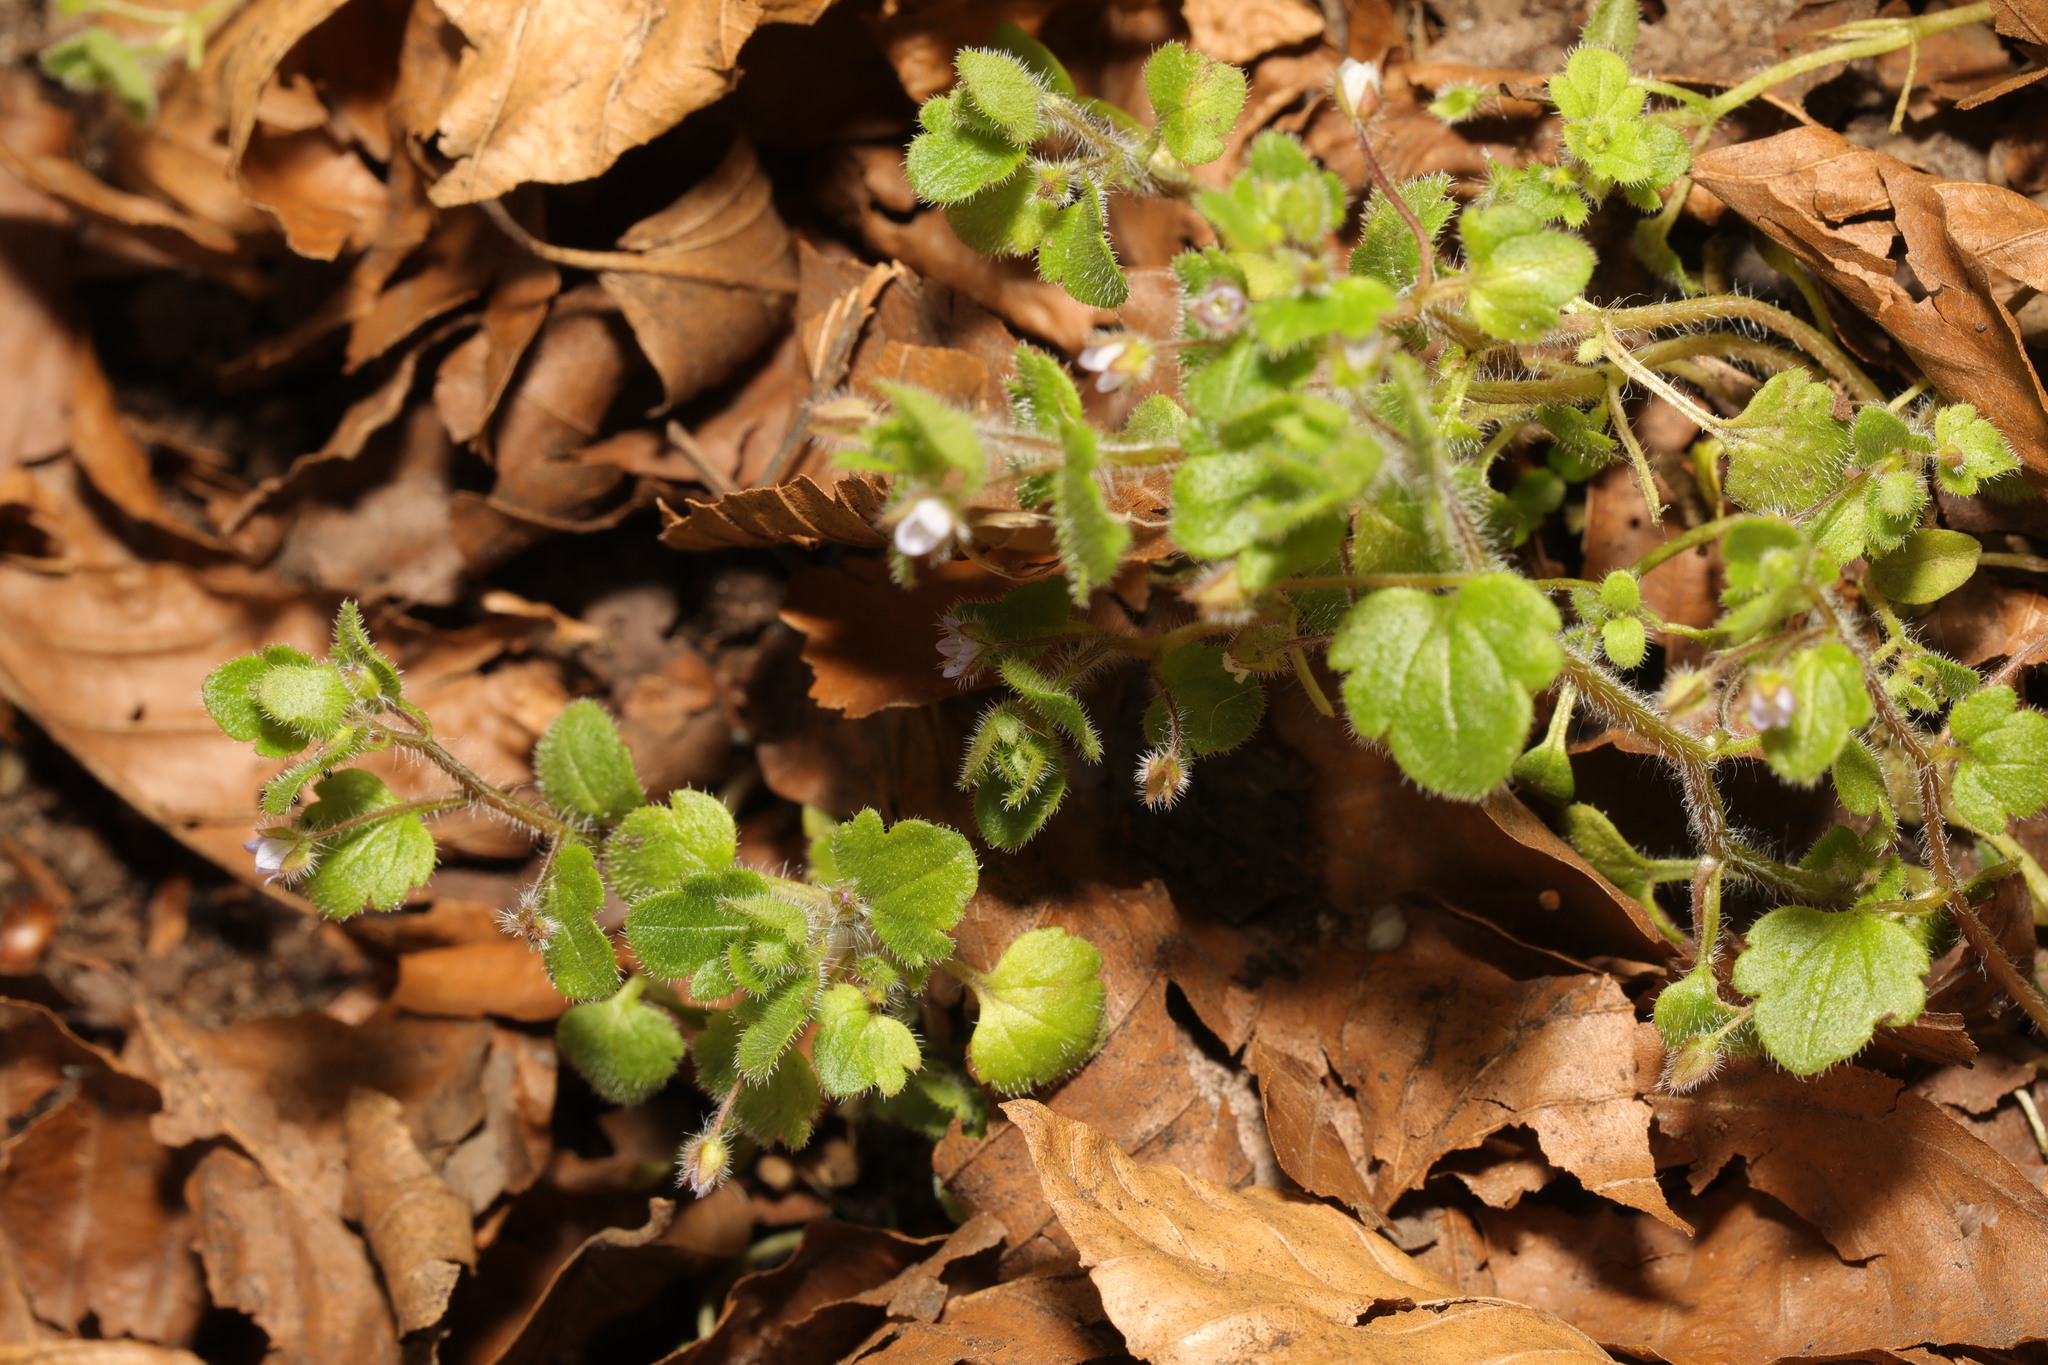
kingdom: Plantae
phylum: Tracheophyta
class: Magnoliopsida
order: Lamiales
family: Plantaginaceae
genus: Veronica
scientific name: Veronica sublobata
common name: False ivy-leaved speedwell
